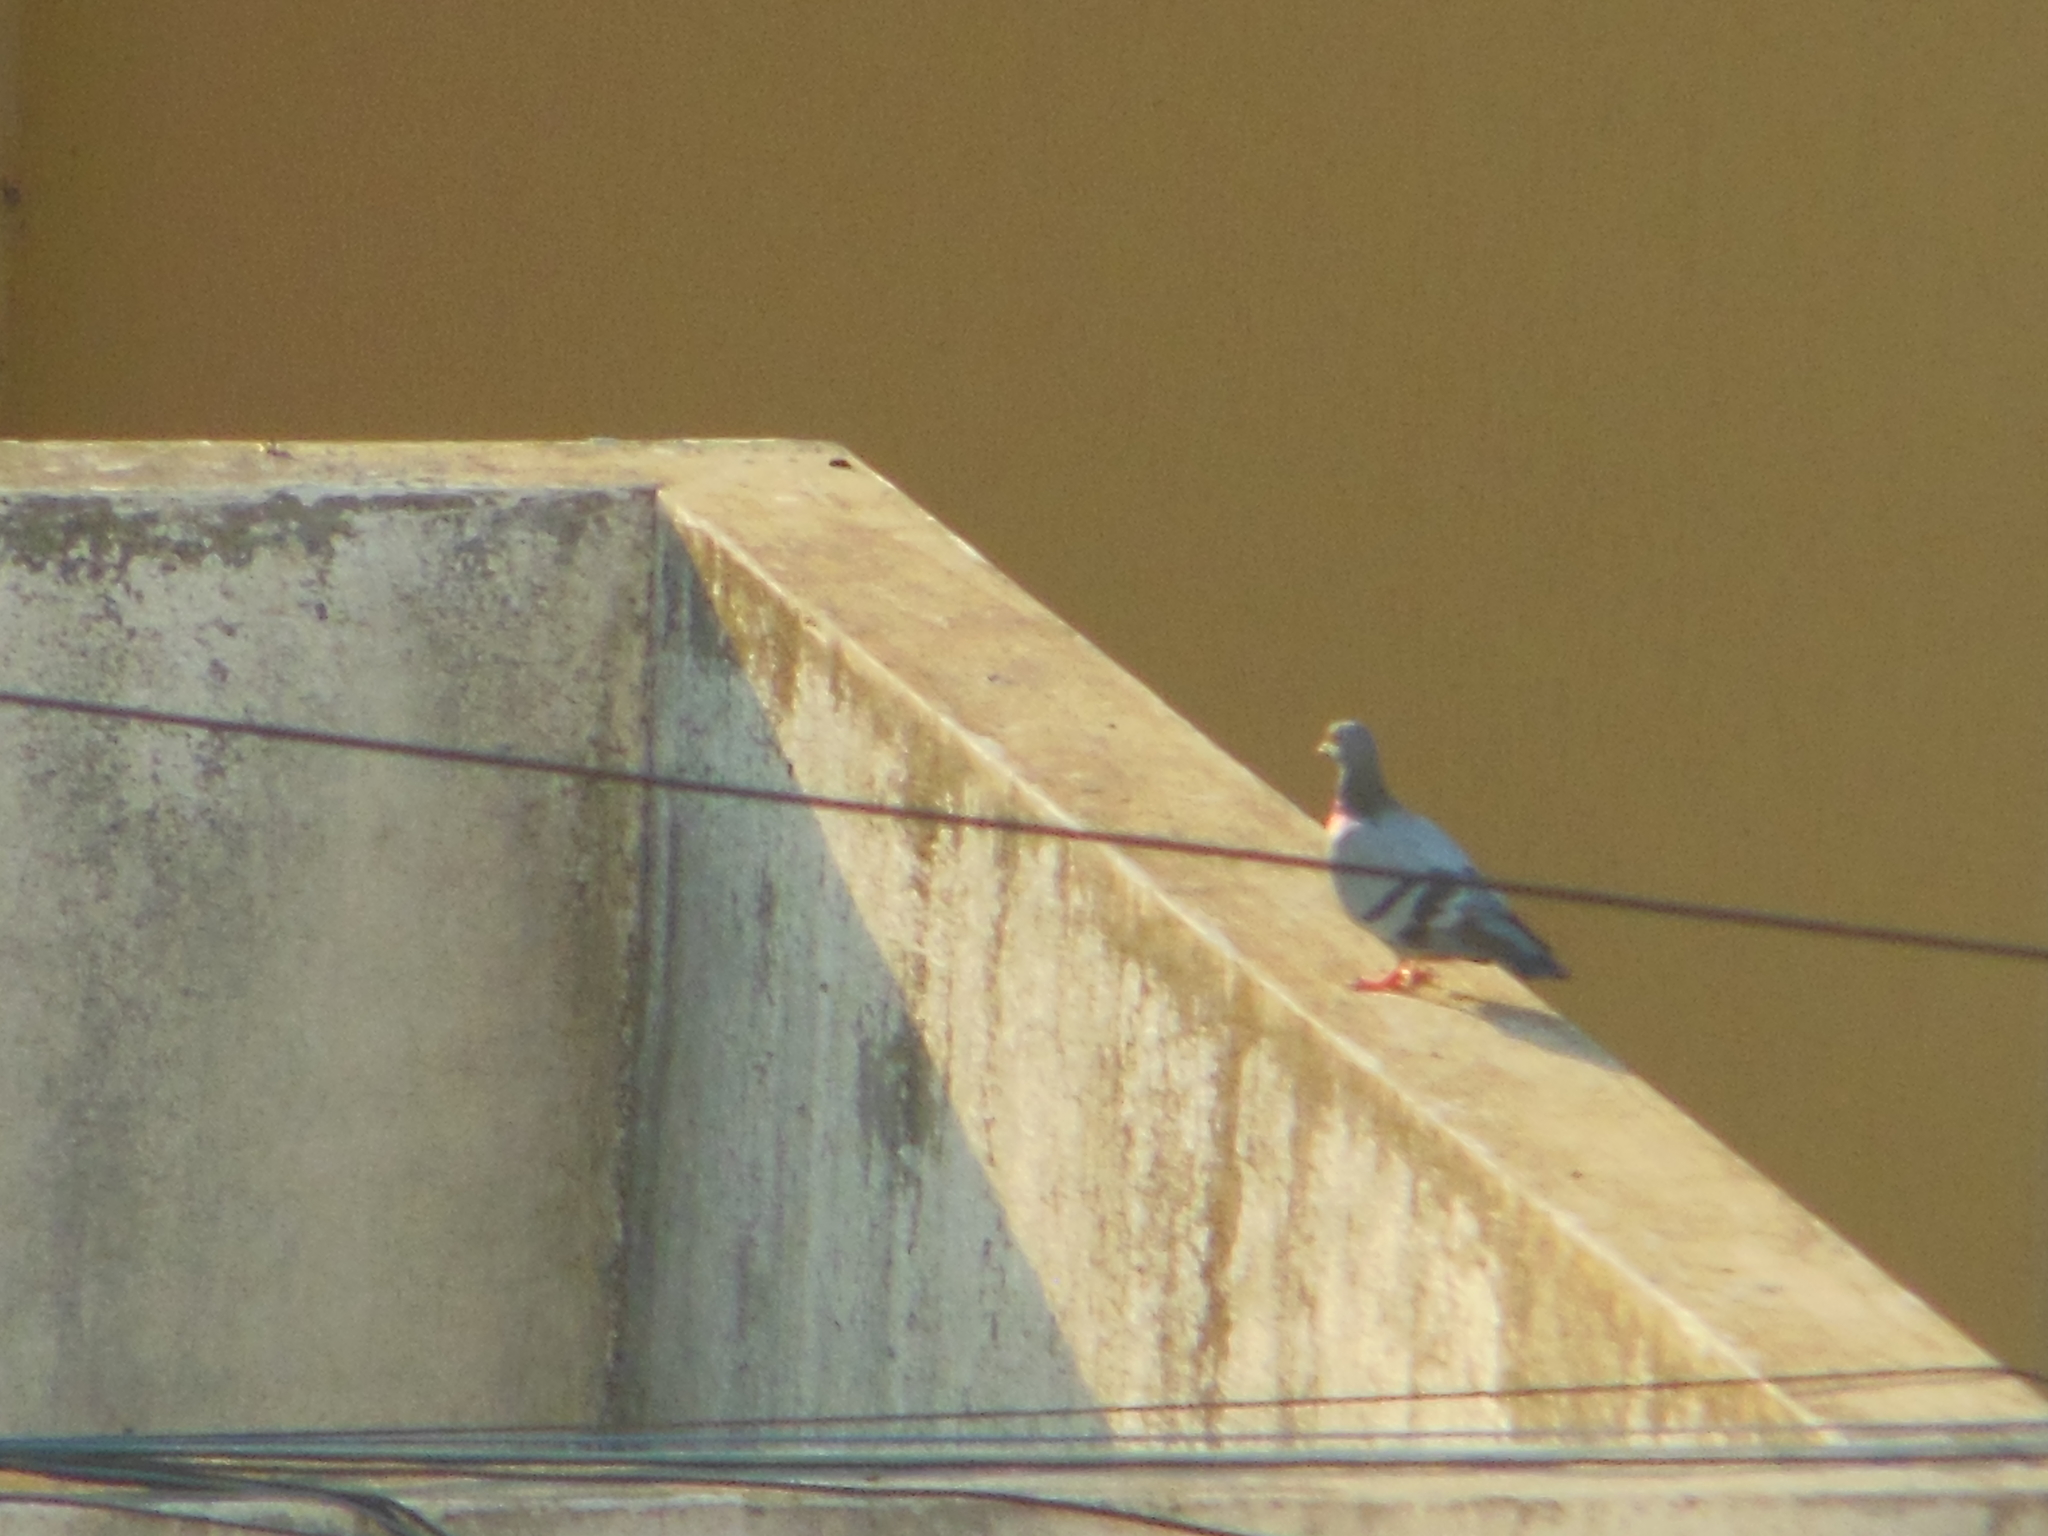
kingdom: Animalia
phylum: Chordata
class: Aves
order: Columbiformes
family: Columbidae
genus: Columba
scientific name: Columba livia
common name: Rock pigeon
